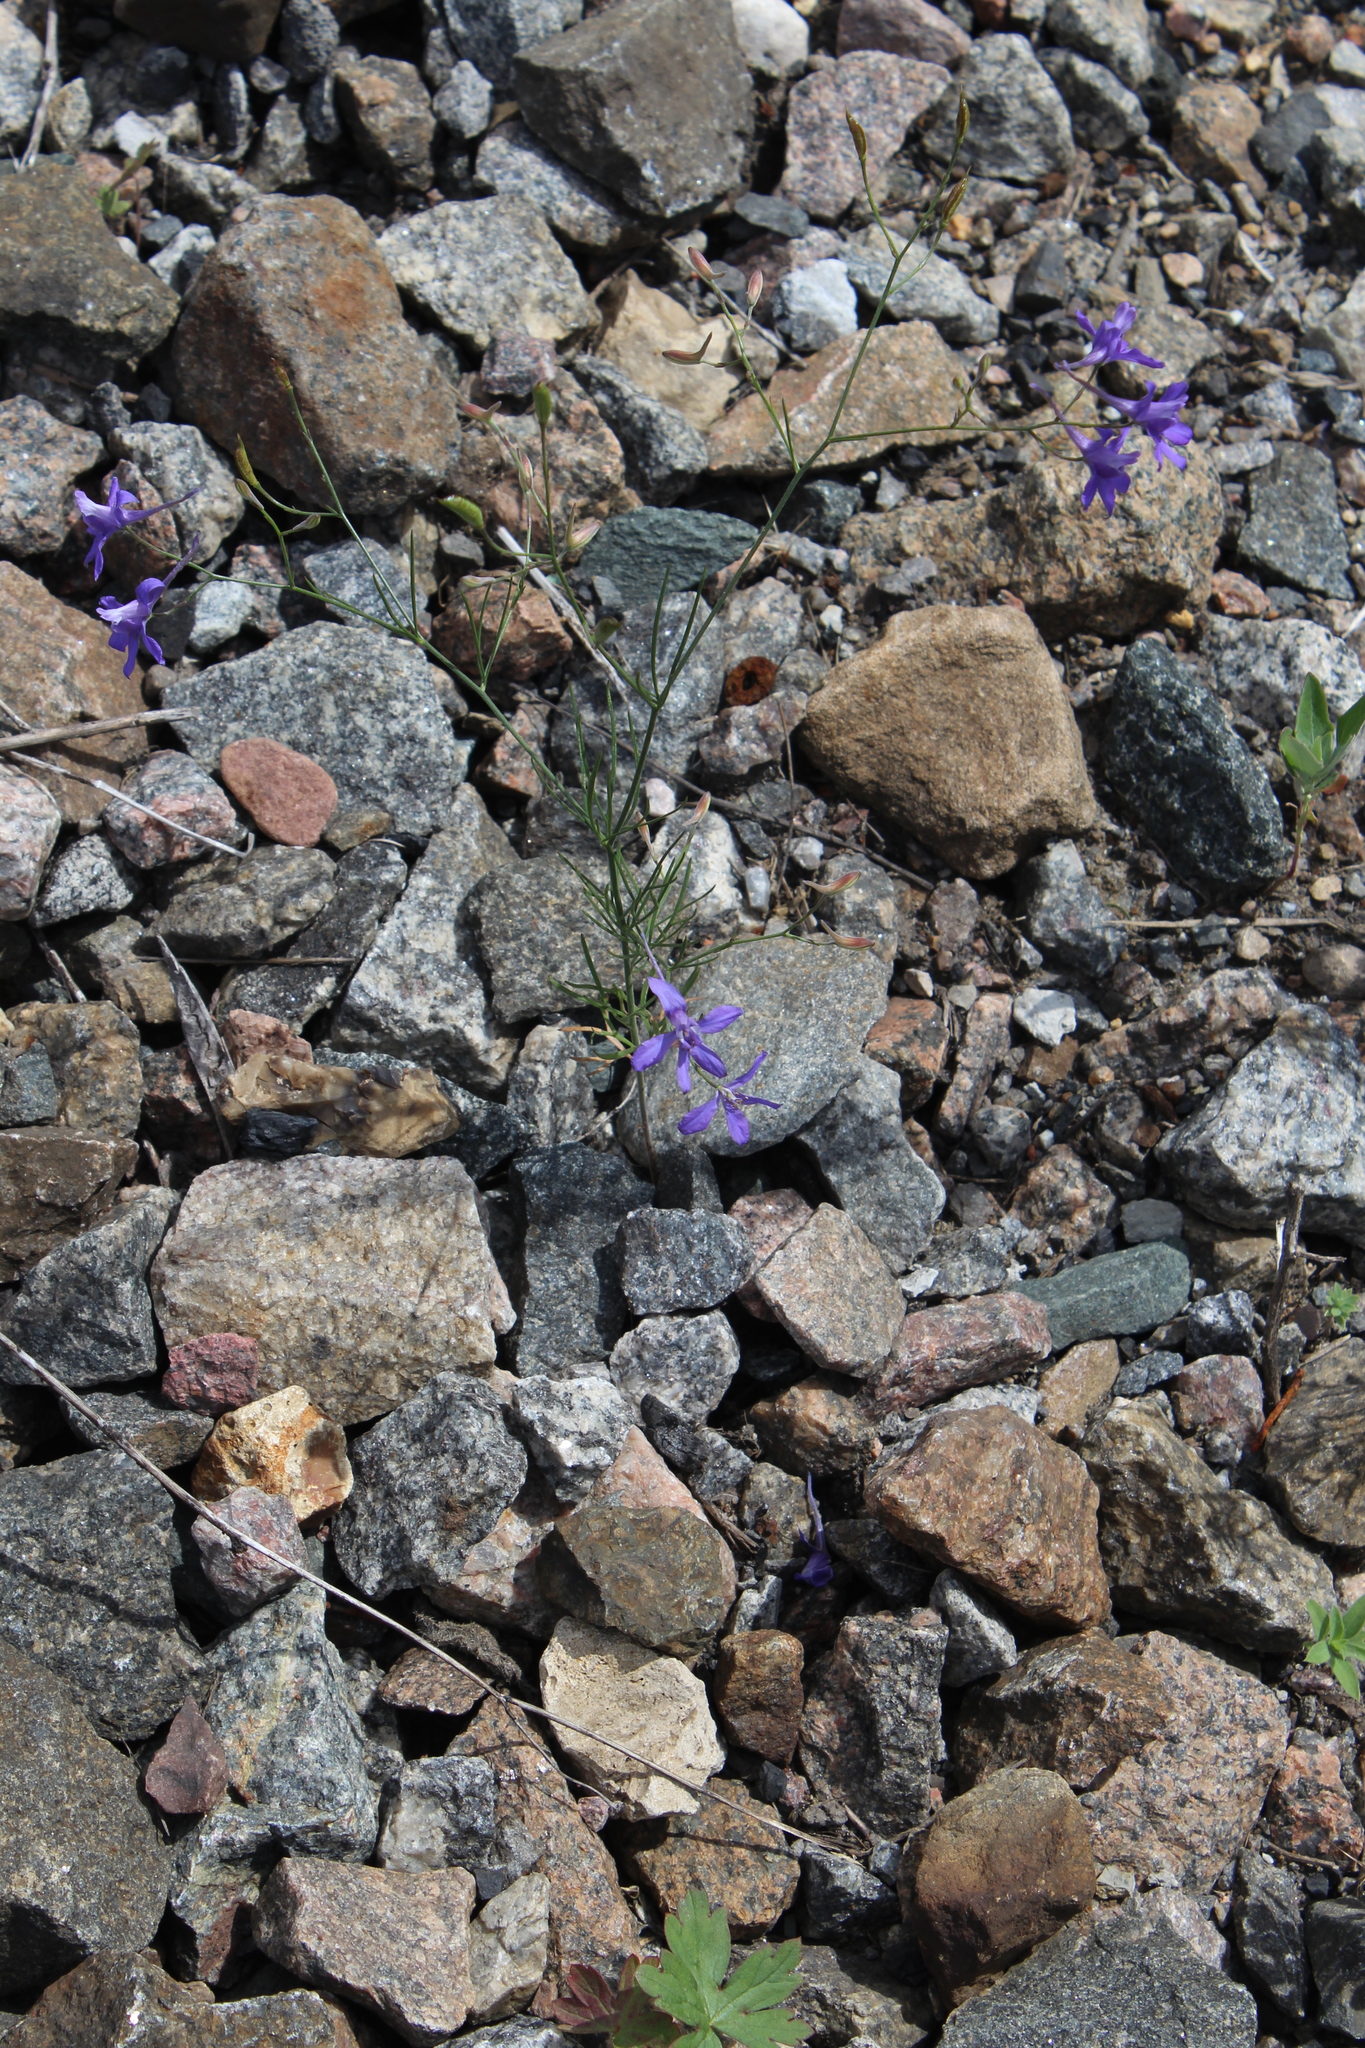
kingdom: Plantae
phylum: Tracheophyta
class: Magnoliopsida
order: Ranunculales
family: Ranunculaceae
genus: Delphinium
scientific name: Delphinium consolida
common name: Branching larkspur
